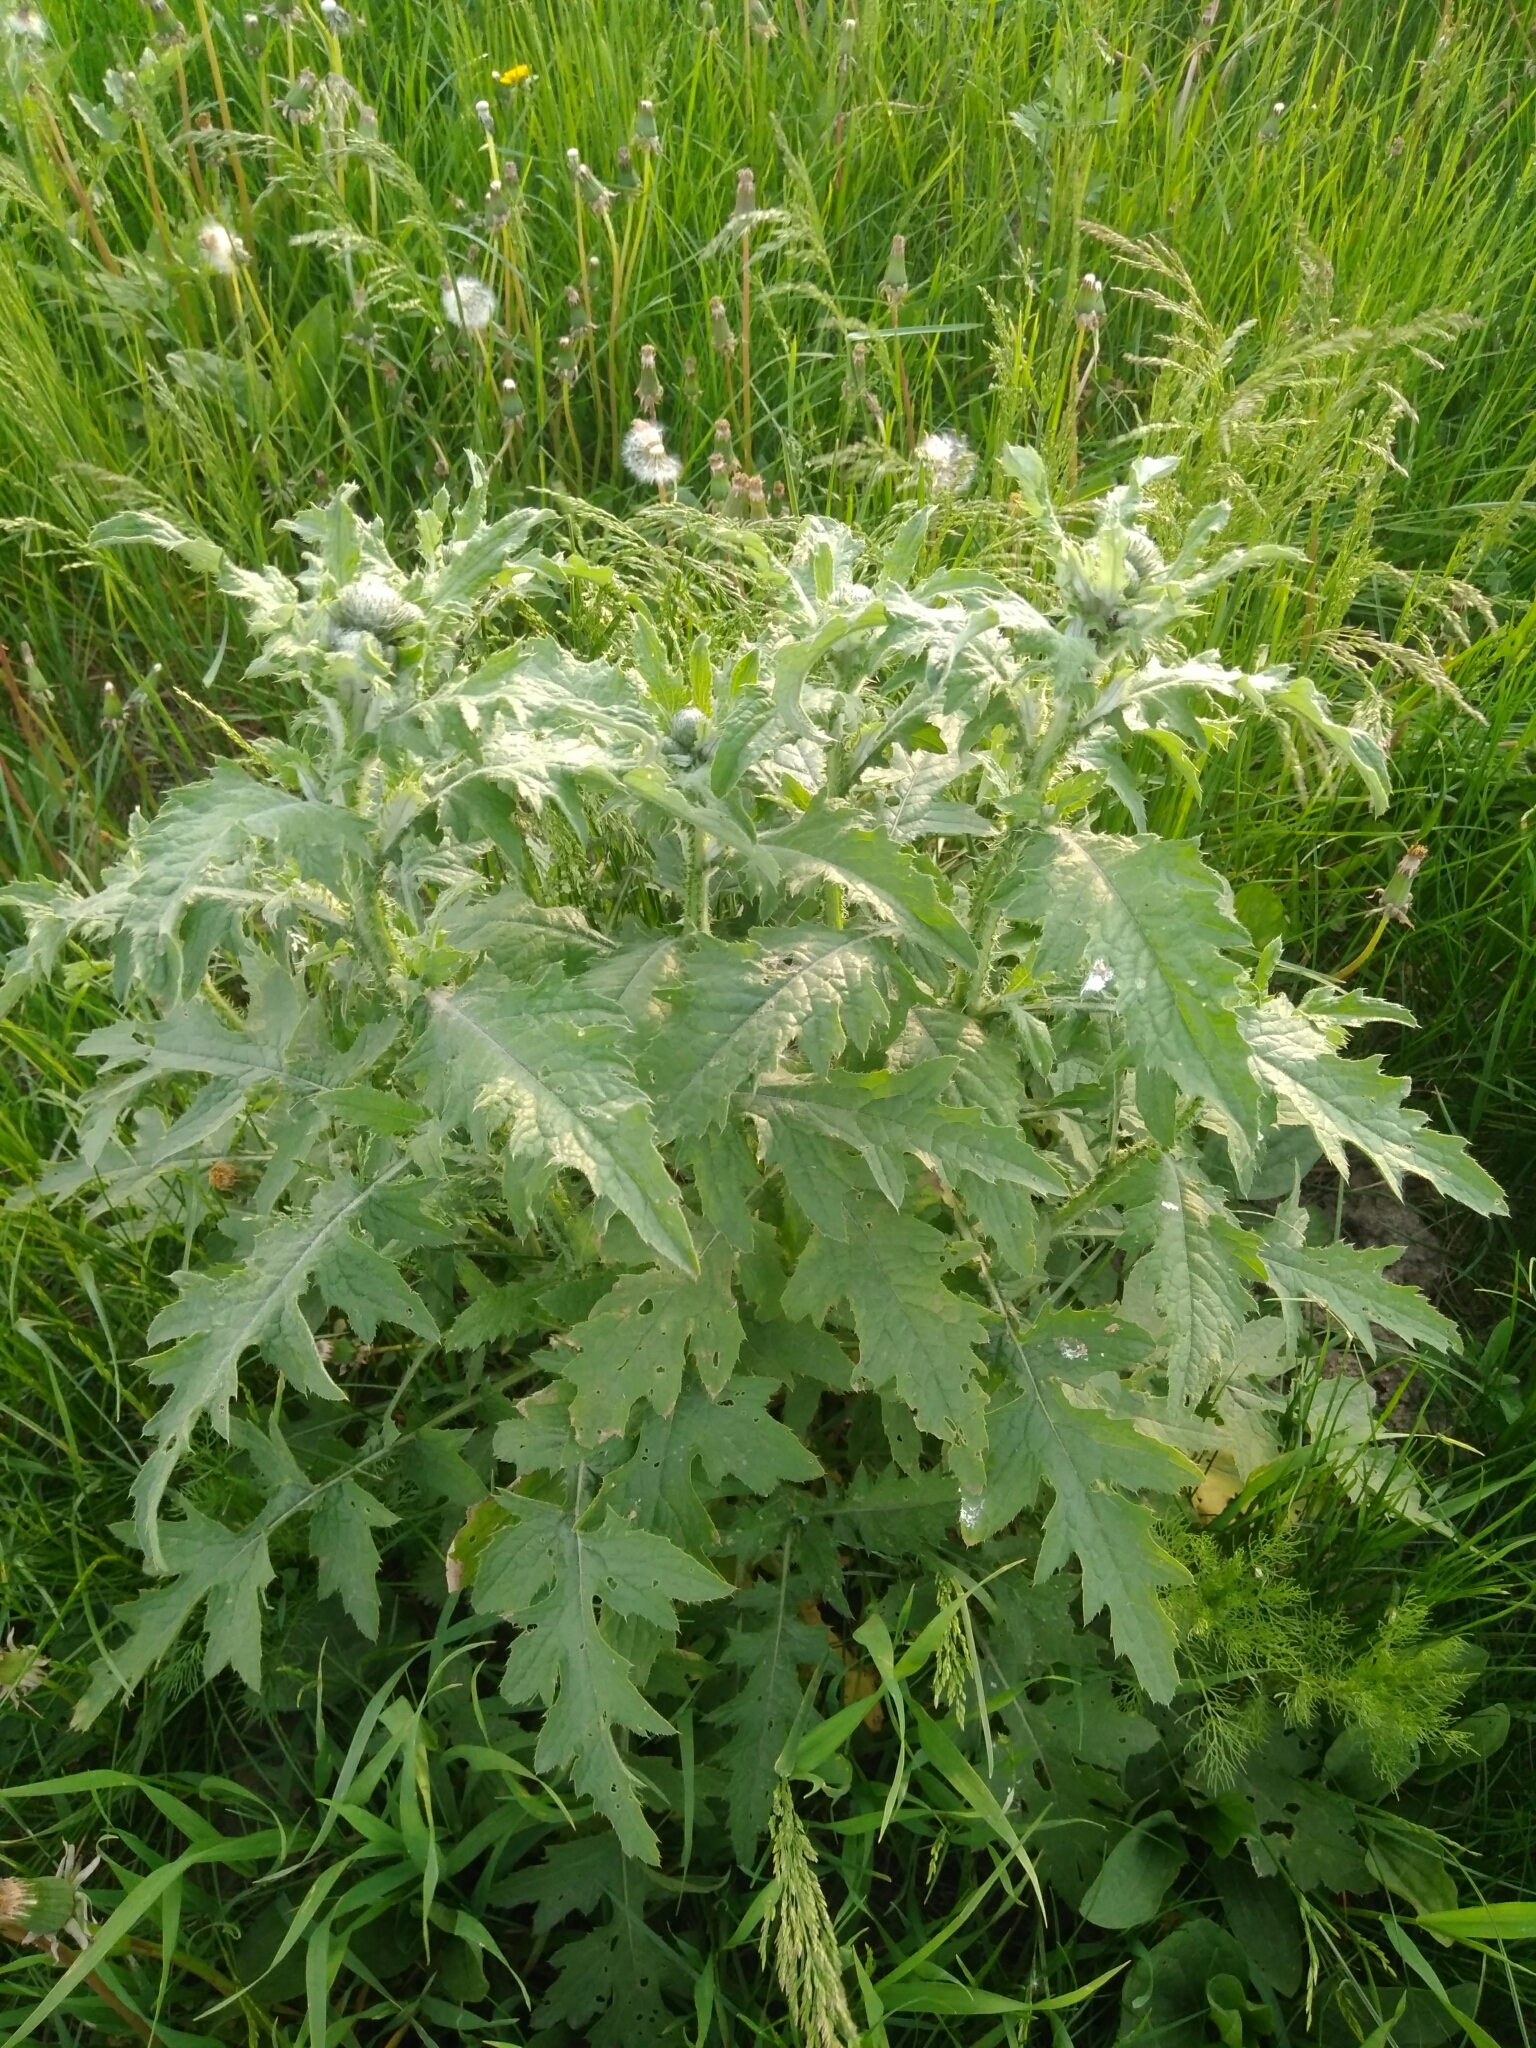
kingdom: Plantae
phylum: Tracheophyta
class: Magnoliopsida
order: Asterales
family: Asteraceae
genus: Carduus
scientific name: Carduus crispus
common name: Welted thistle
